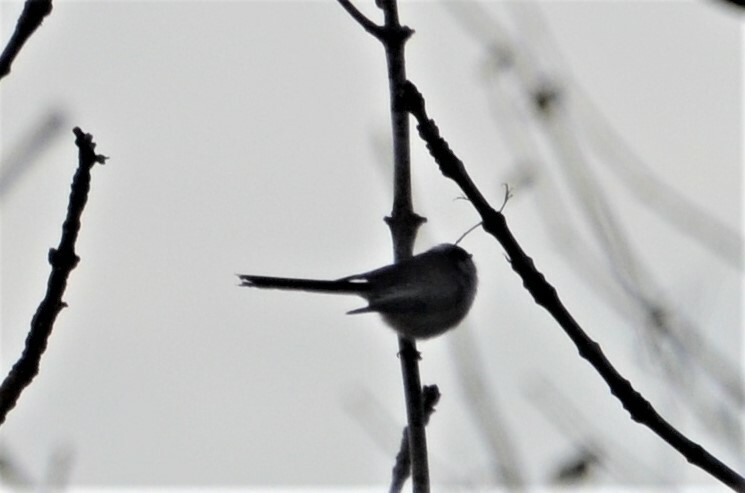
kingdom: Animalia
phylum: Chordata
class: Aves
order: Passeriformes
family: Aegithalidae
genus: Aegithalos
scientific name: Aegithalos caudatus
